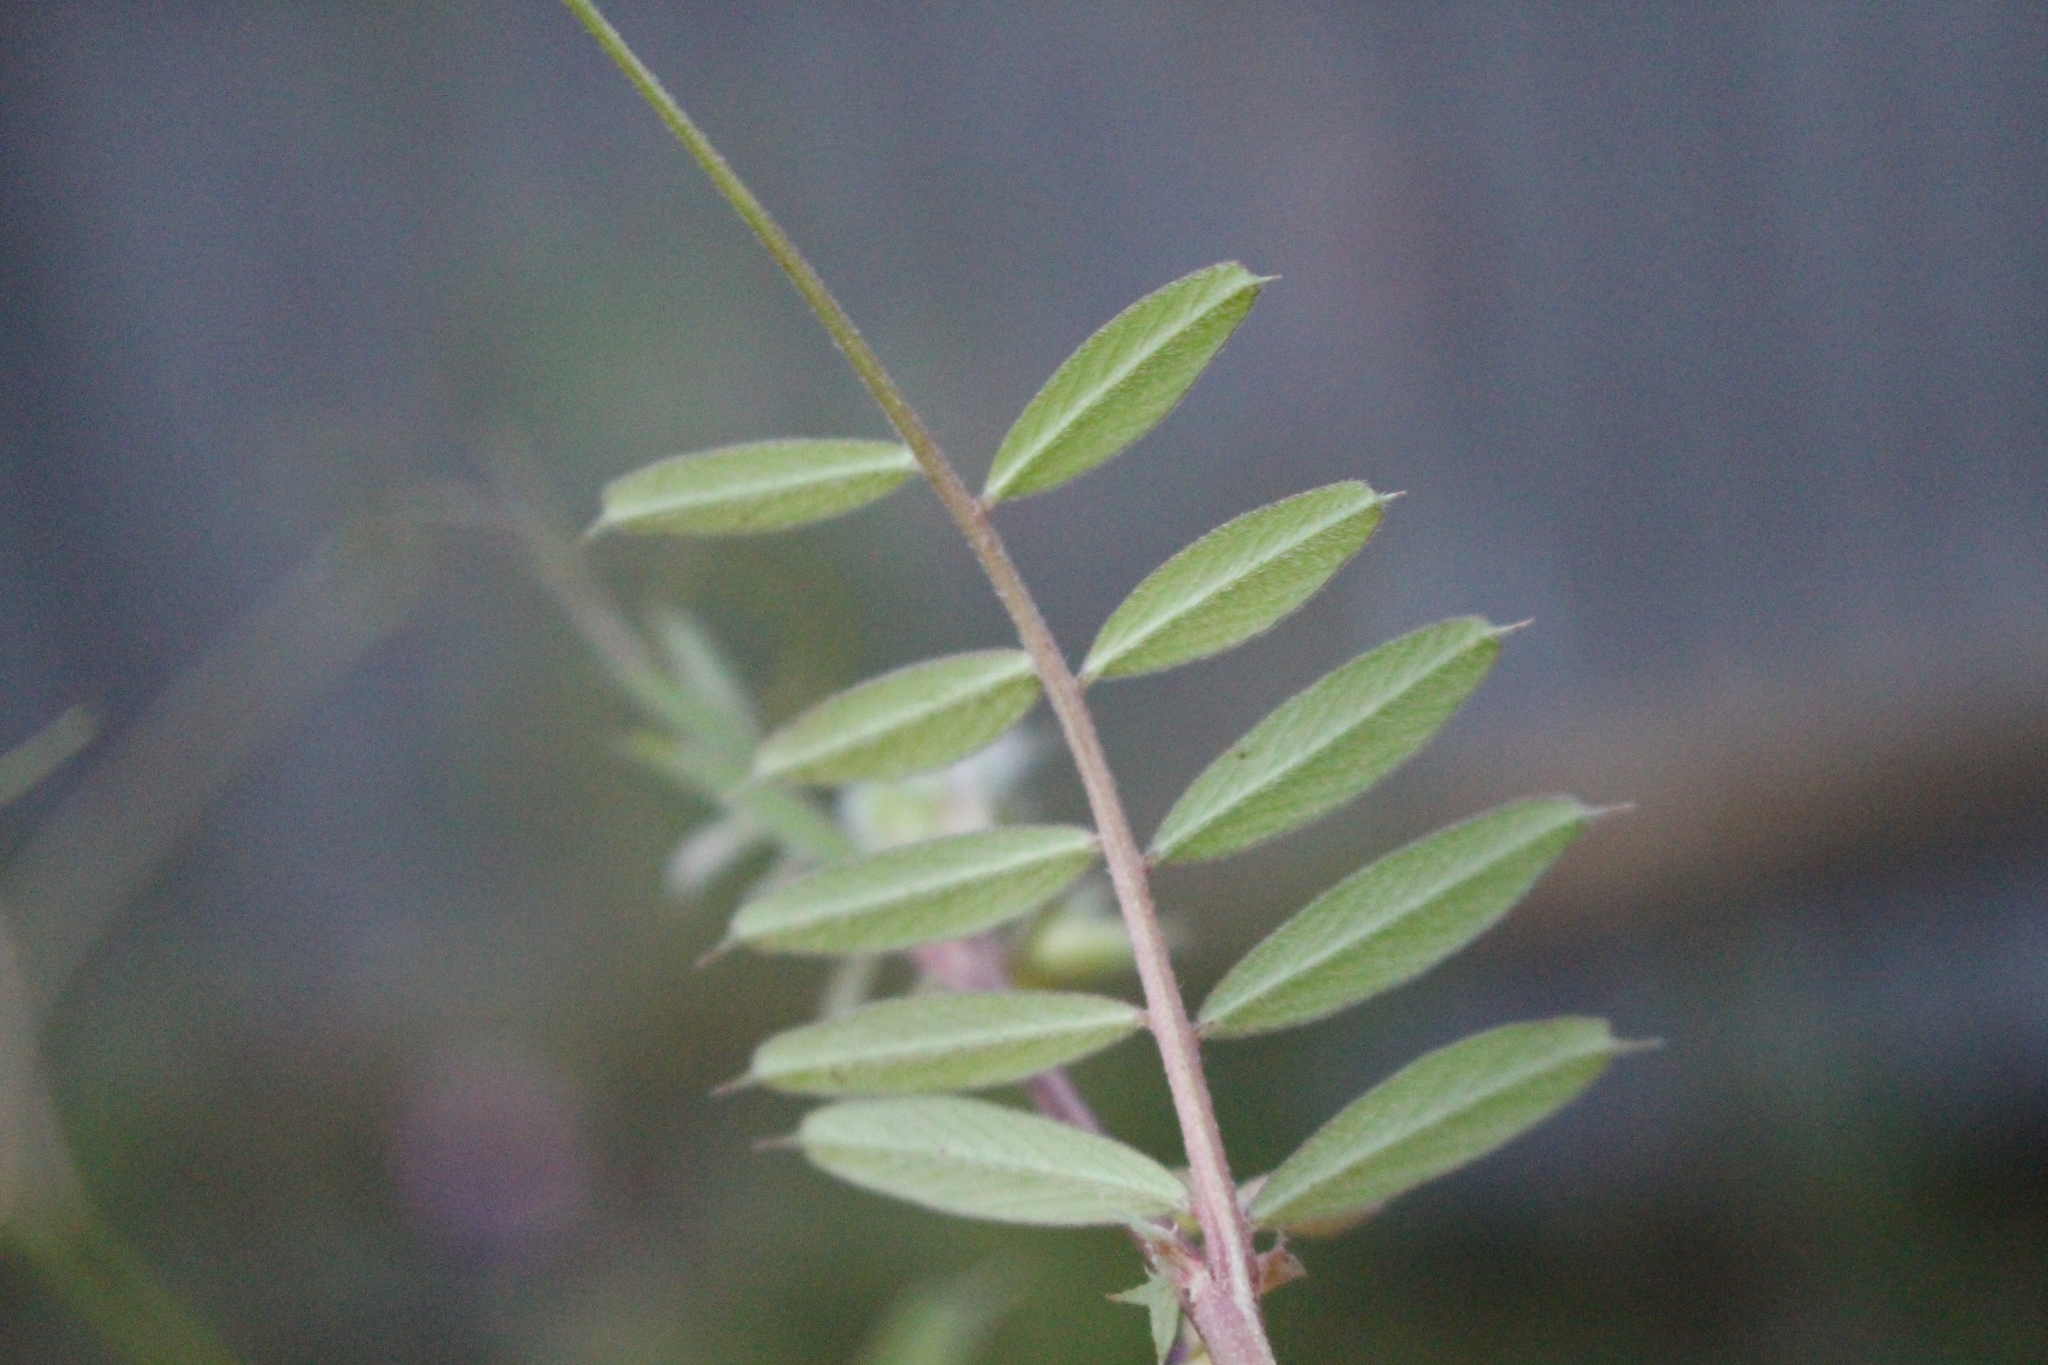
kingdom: Plantae
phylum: Tracheophyta
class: Magnoliopsida
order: Fabales
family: Fabaceae
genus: Vicia
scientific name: Vicia sativa
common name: Garden vetch
